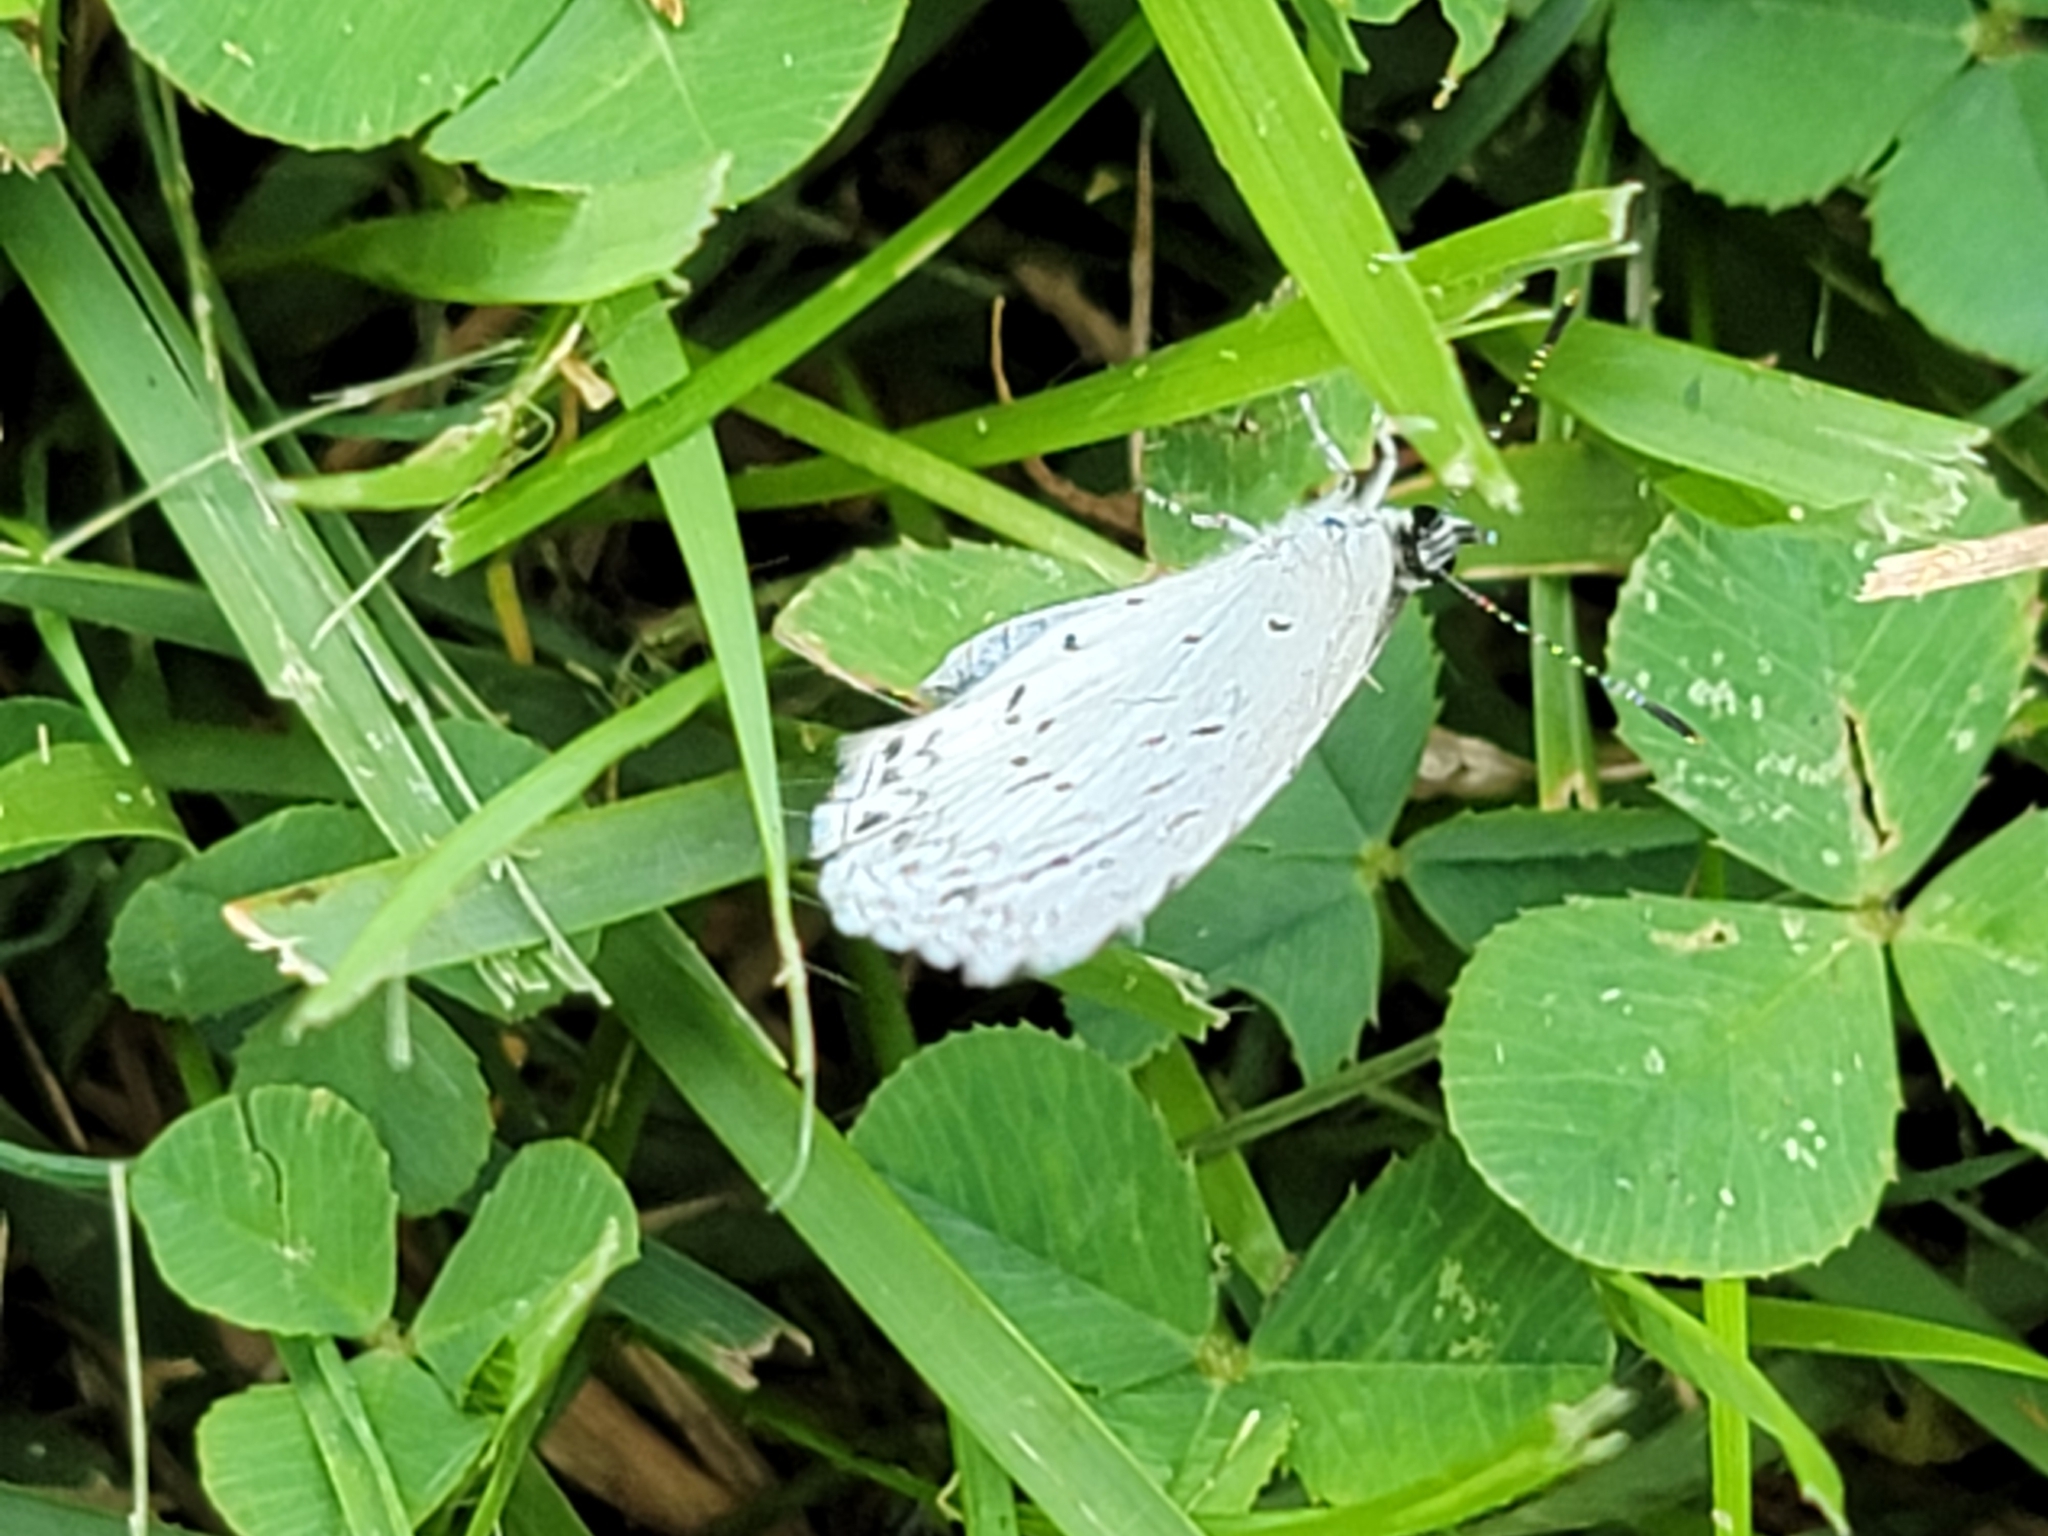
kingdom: Animalia
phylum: Arthropoda
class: Insecta
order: Lepidoptera
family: Lycaenidae
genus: Cyaniris
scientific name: Cyaniris neglecta
